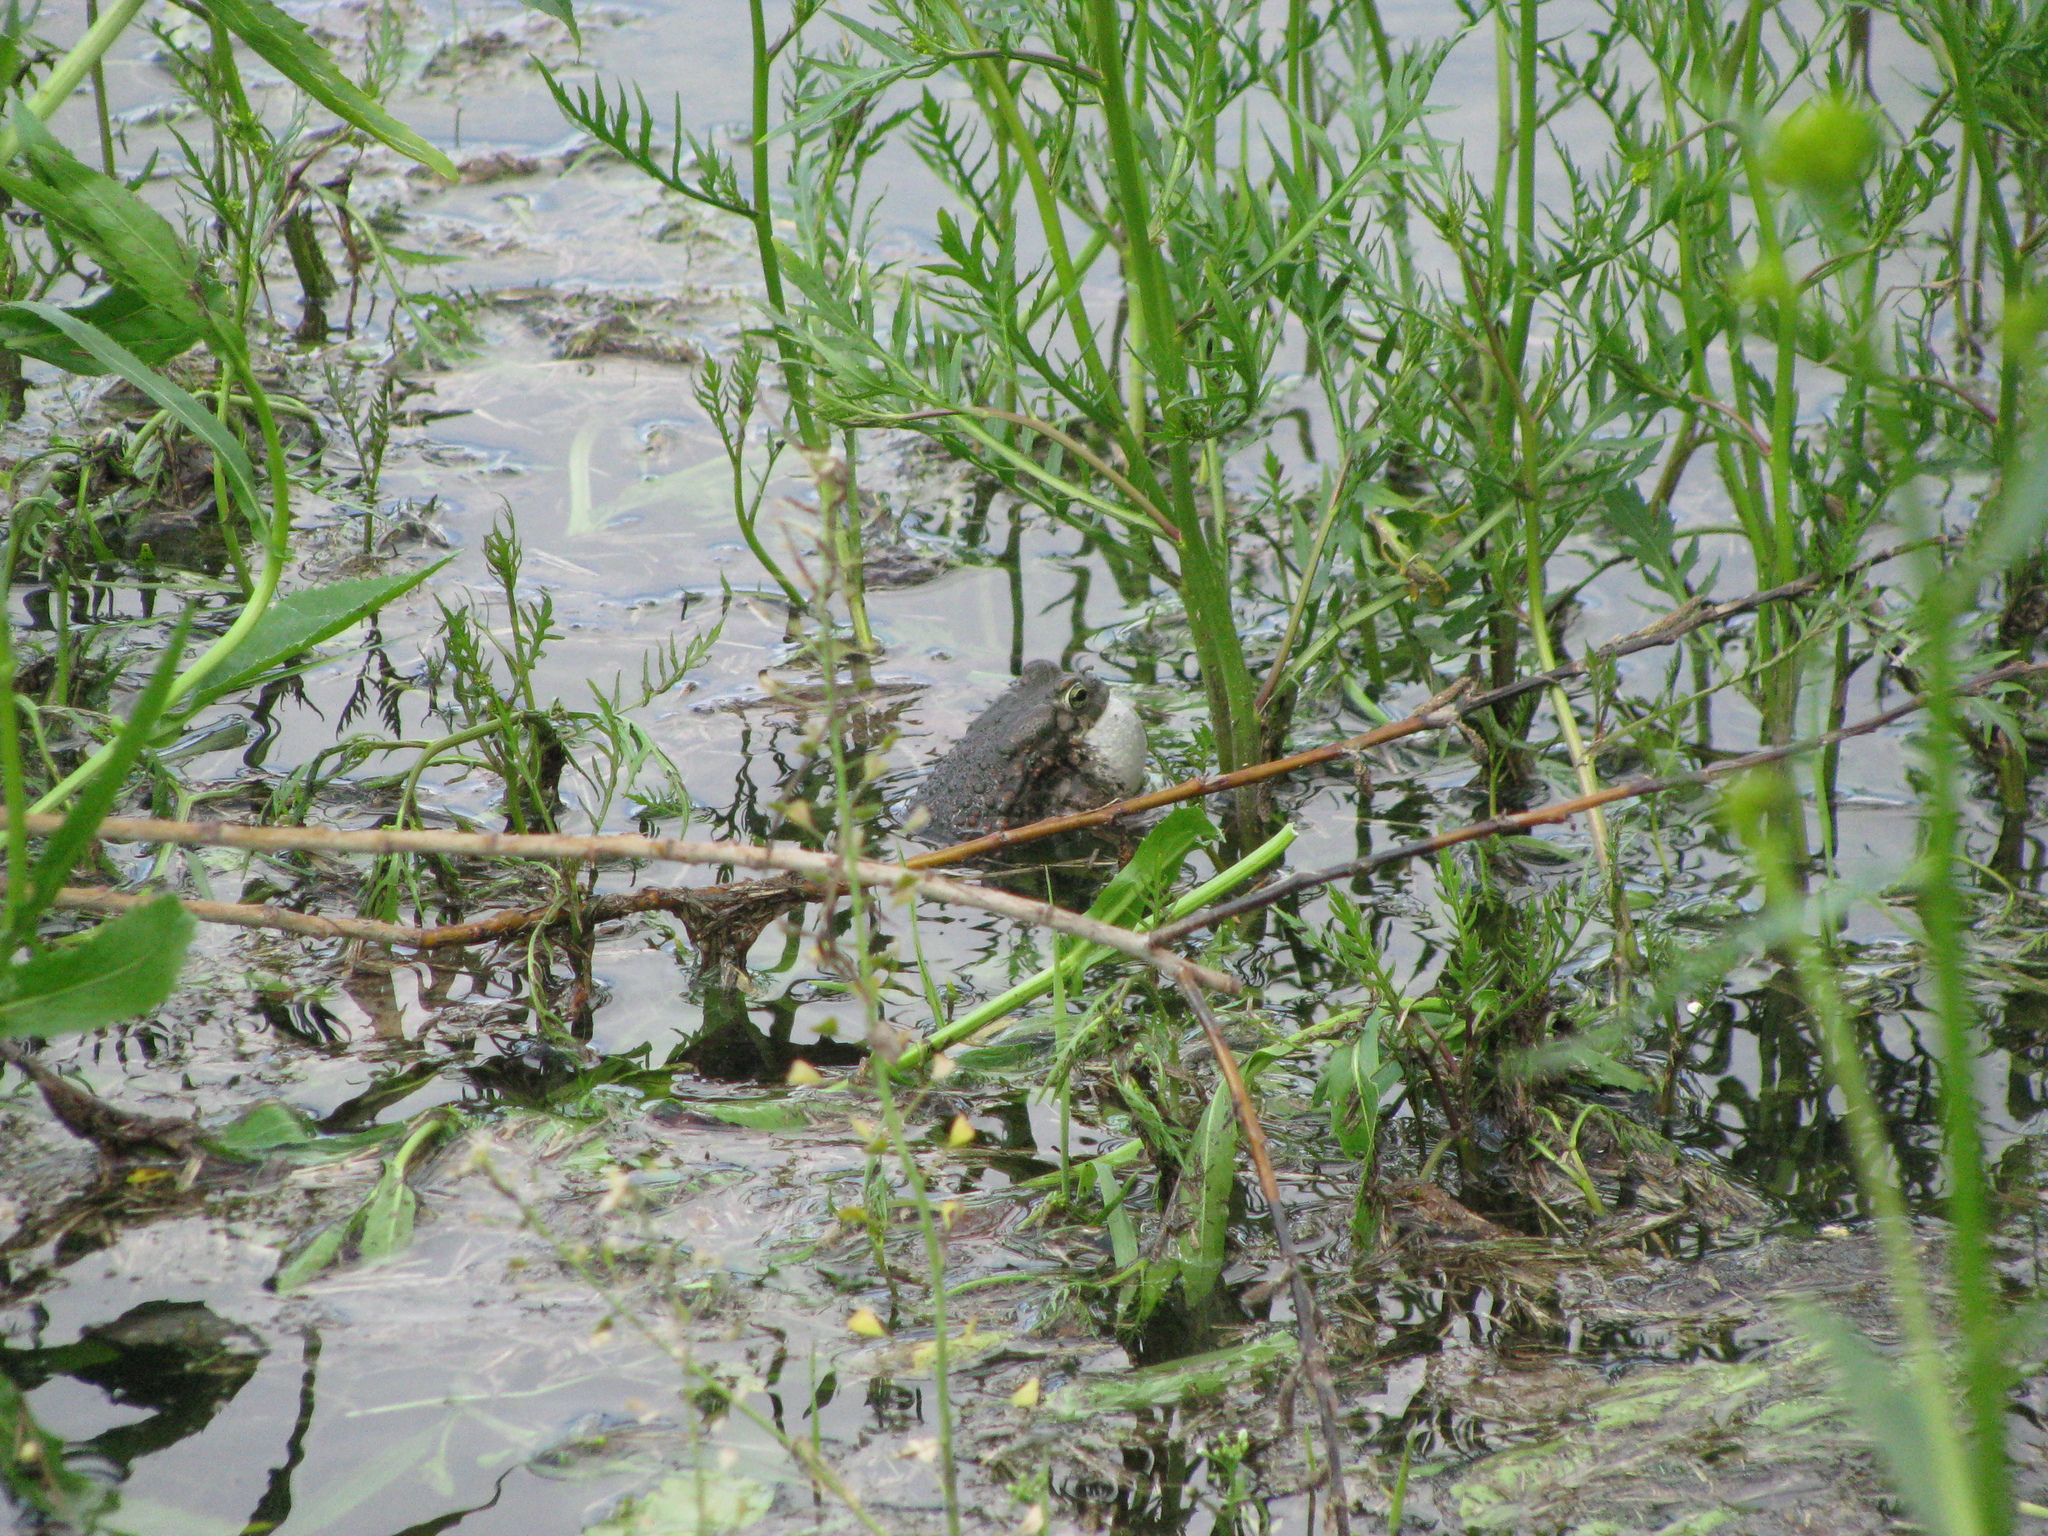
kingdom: Animalia
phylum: Chordata
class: Amphibia
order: Anura
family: Bufonidae
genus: Bufotes
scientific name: Bufotes viridis
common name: European green toad
